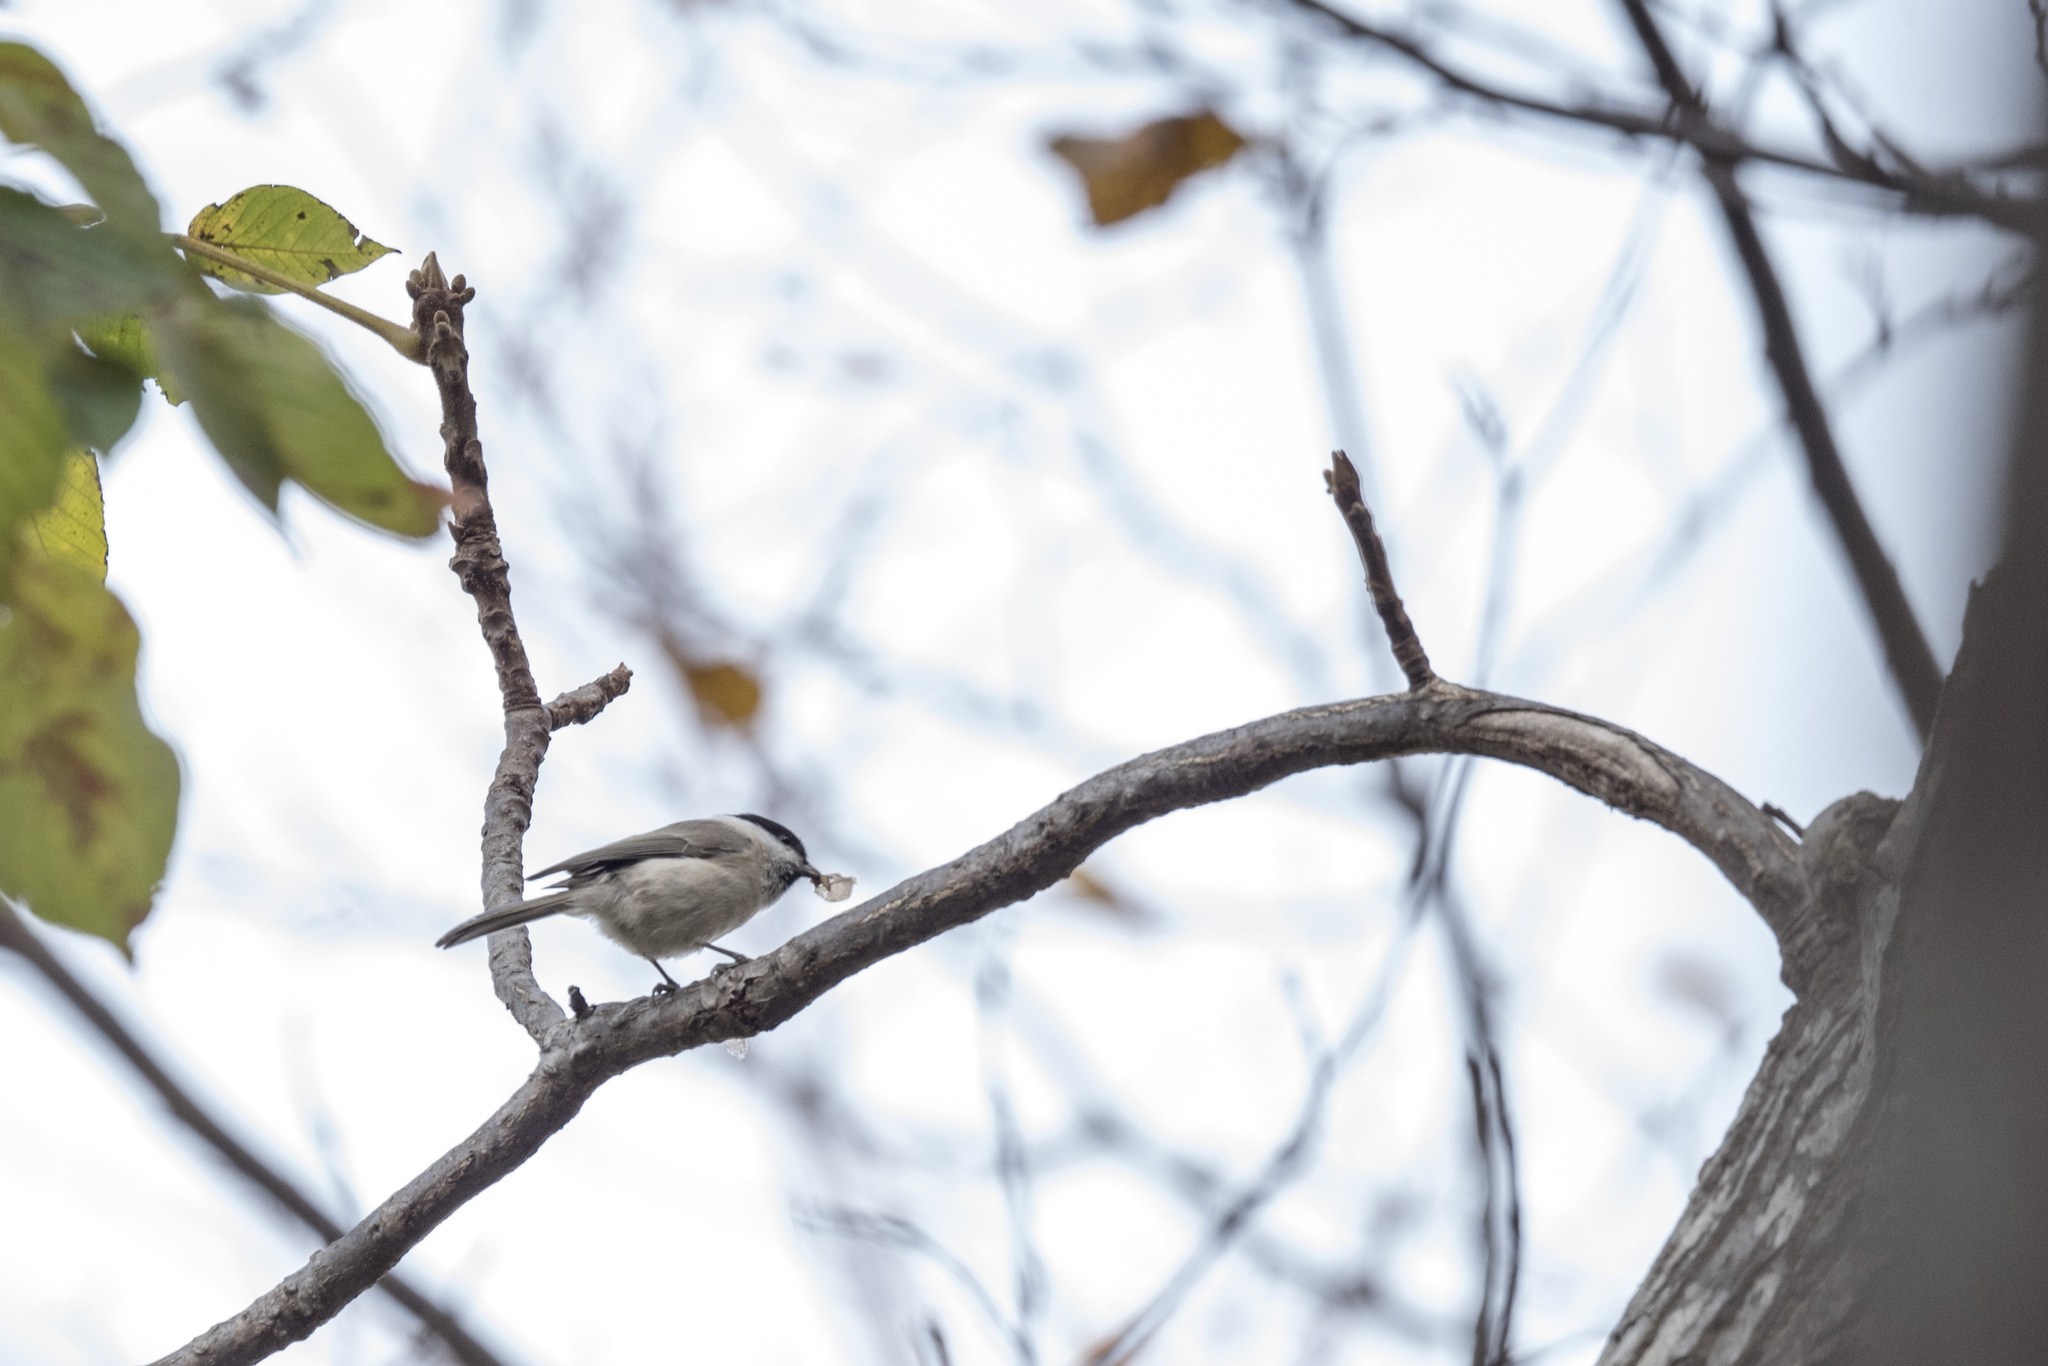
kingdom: Animalia
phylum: Chordata
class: Aves
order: Passeriformes
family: Paridae
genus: Poecile
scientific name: Poecile palustris
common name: Marsh tit
